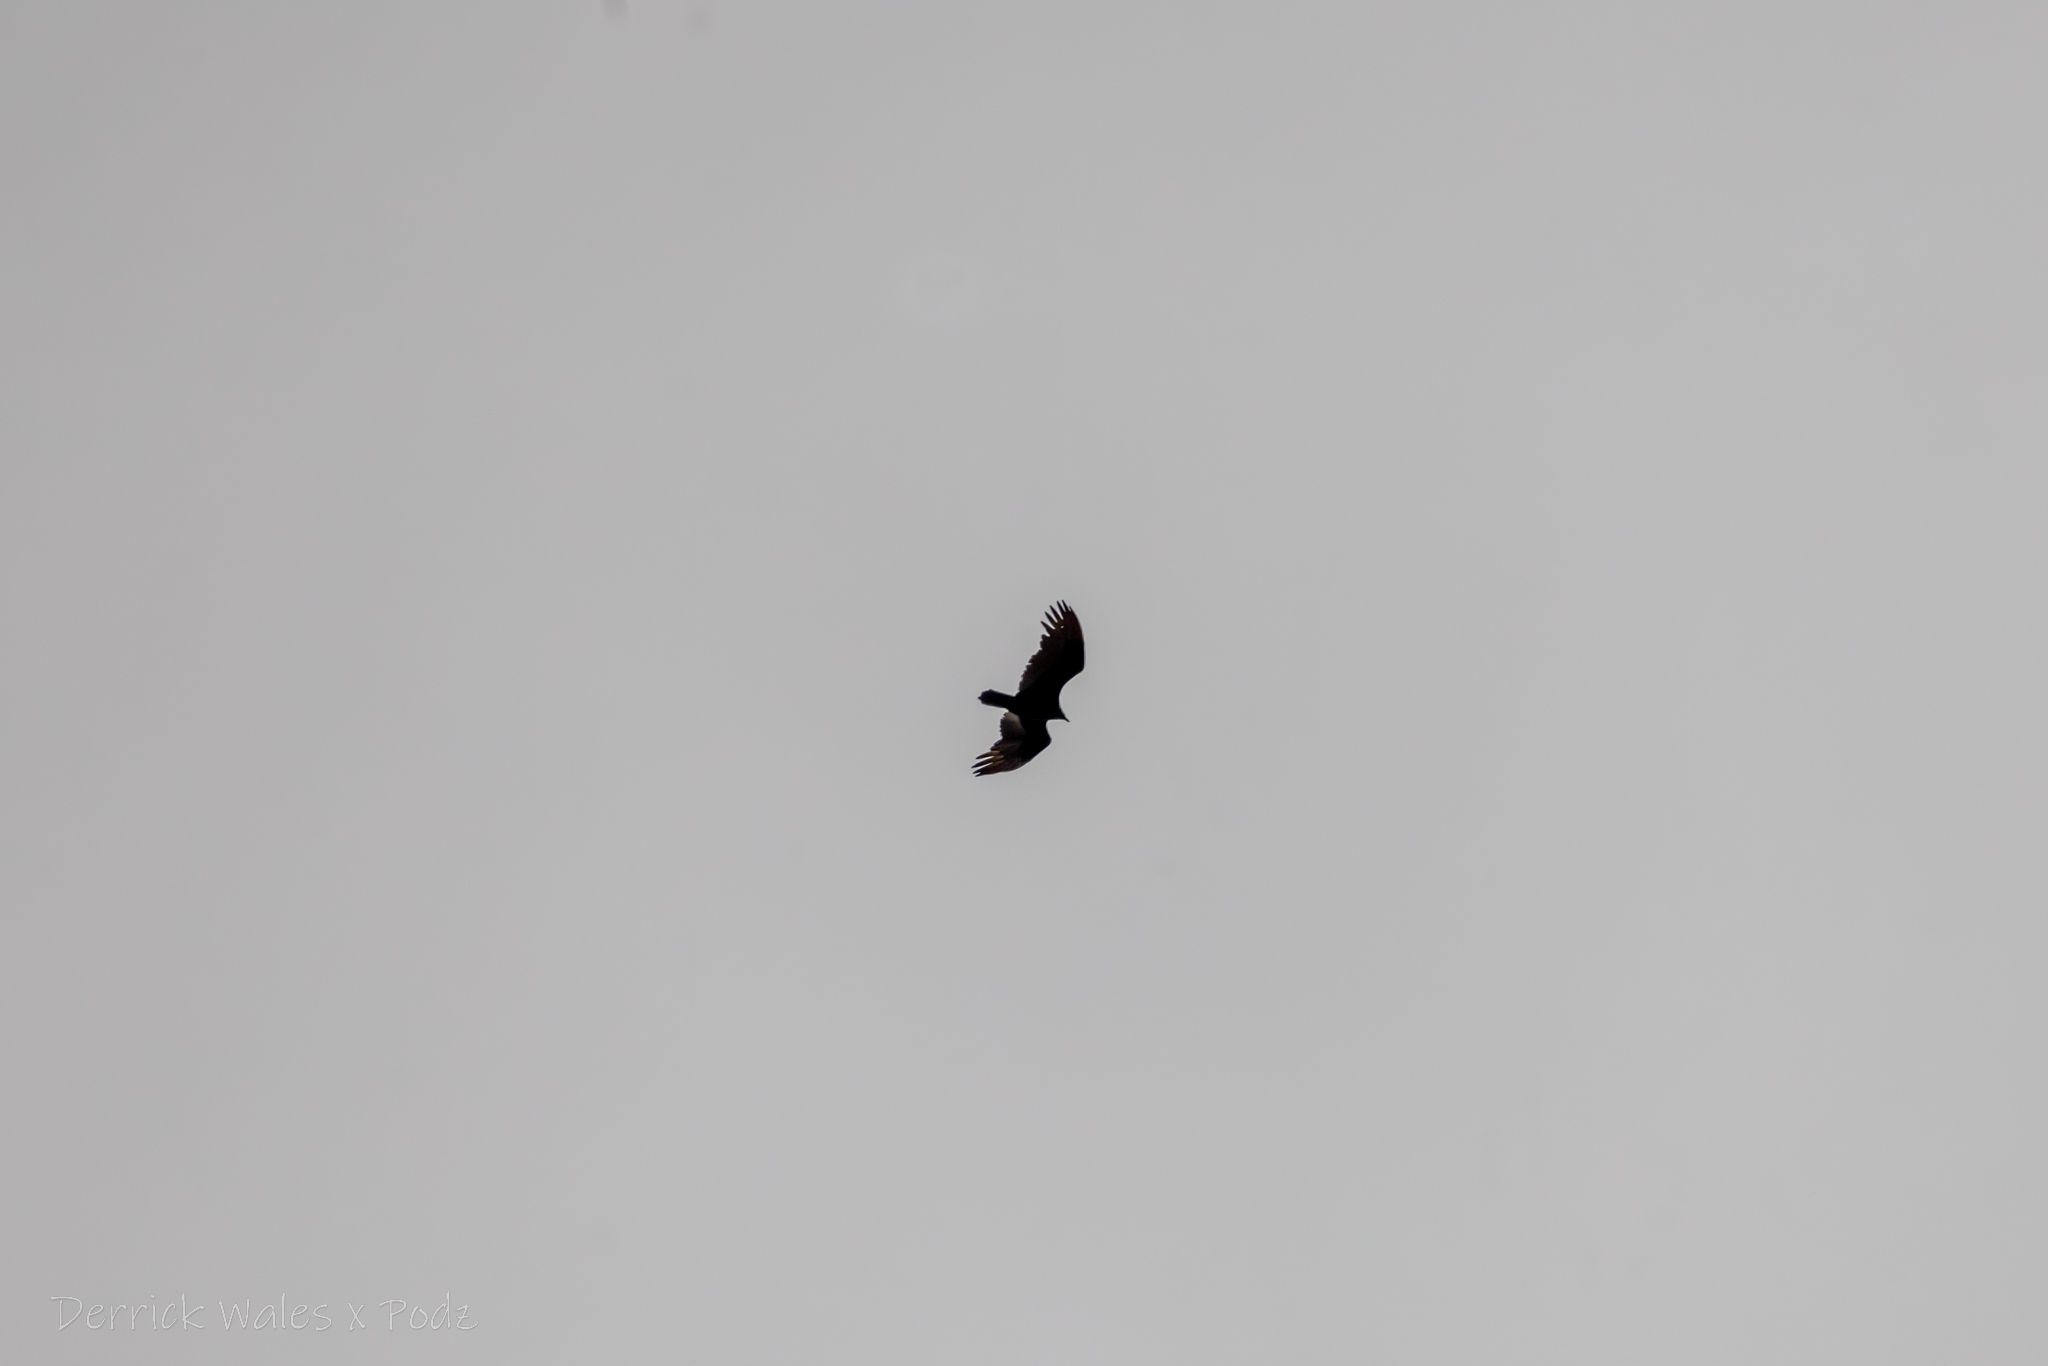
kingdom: Animalia
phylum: Chordata
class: Aves
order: Accipitriformes
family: Cathartidae
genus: Cathartes
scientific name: Cathartes aura
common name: Turkey vulture
